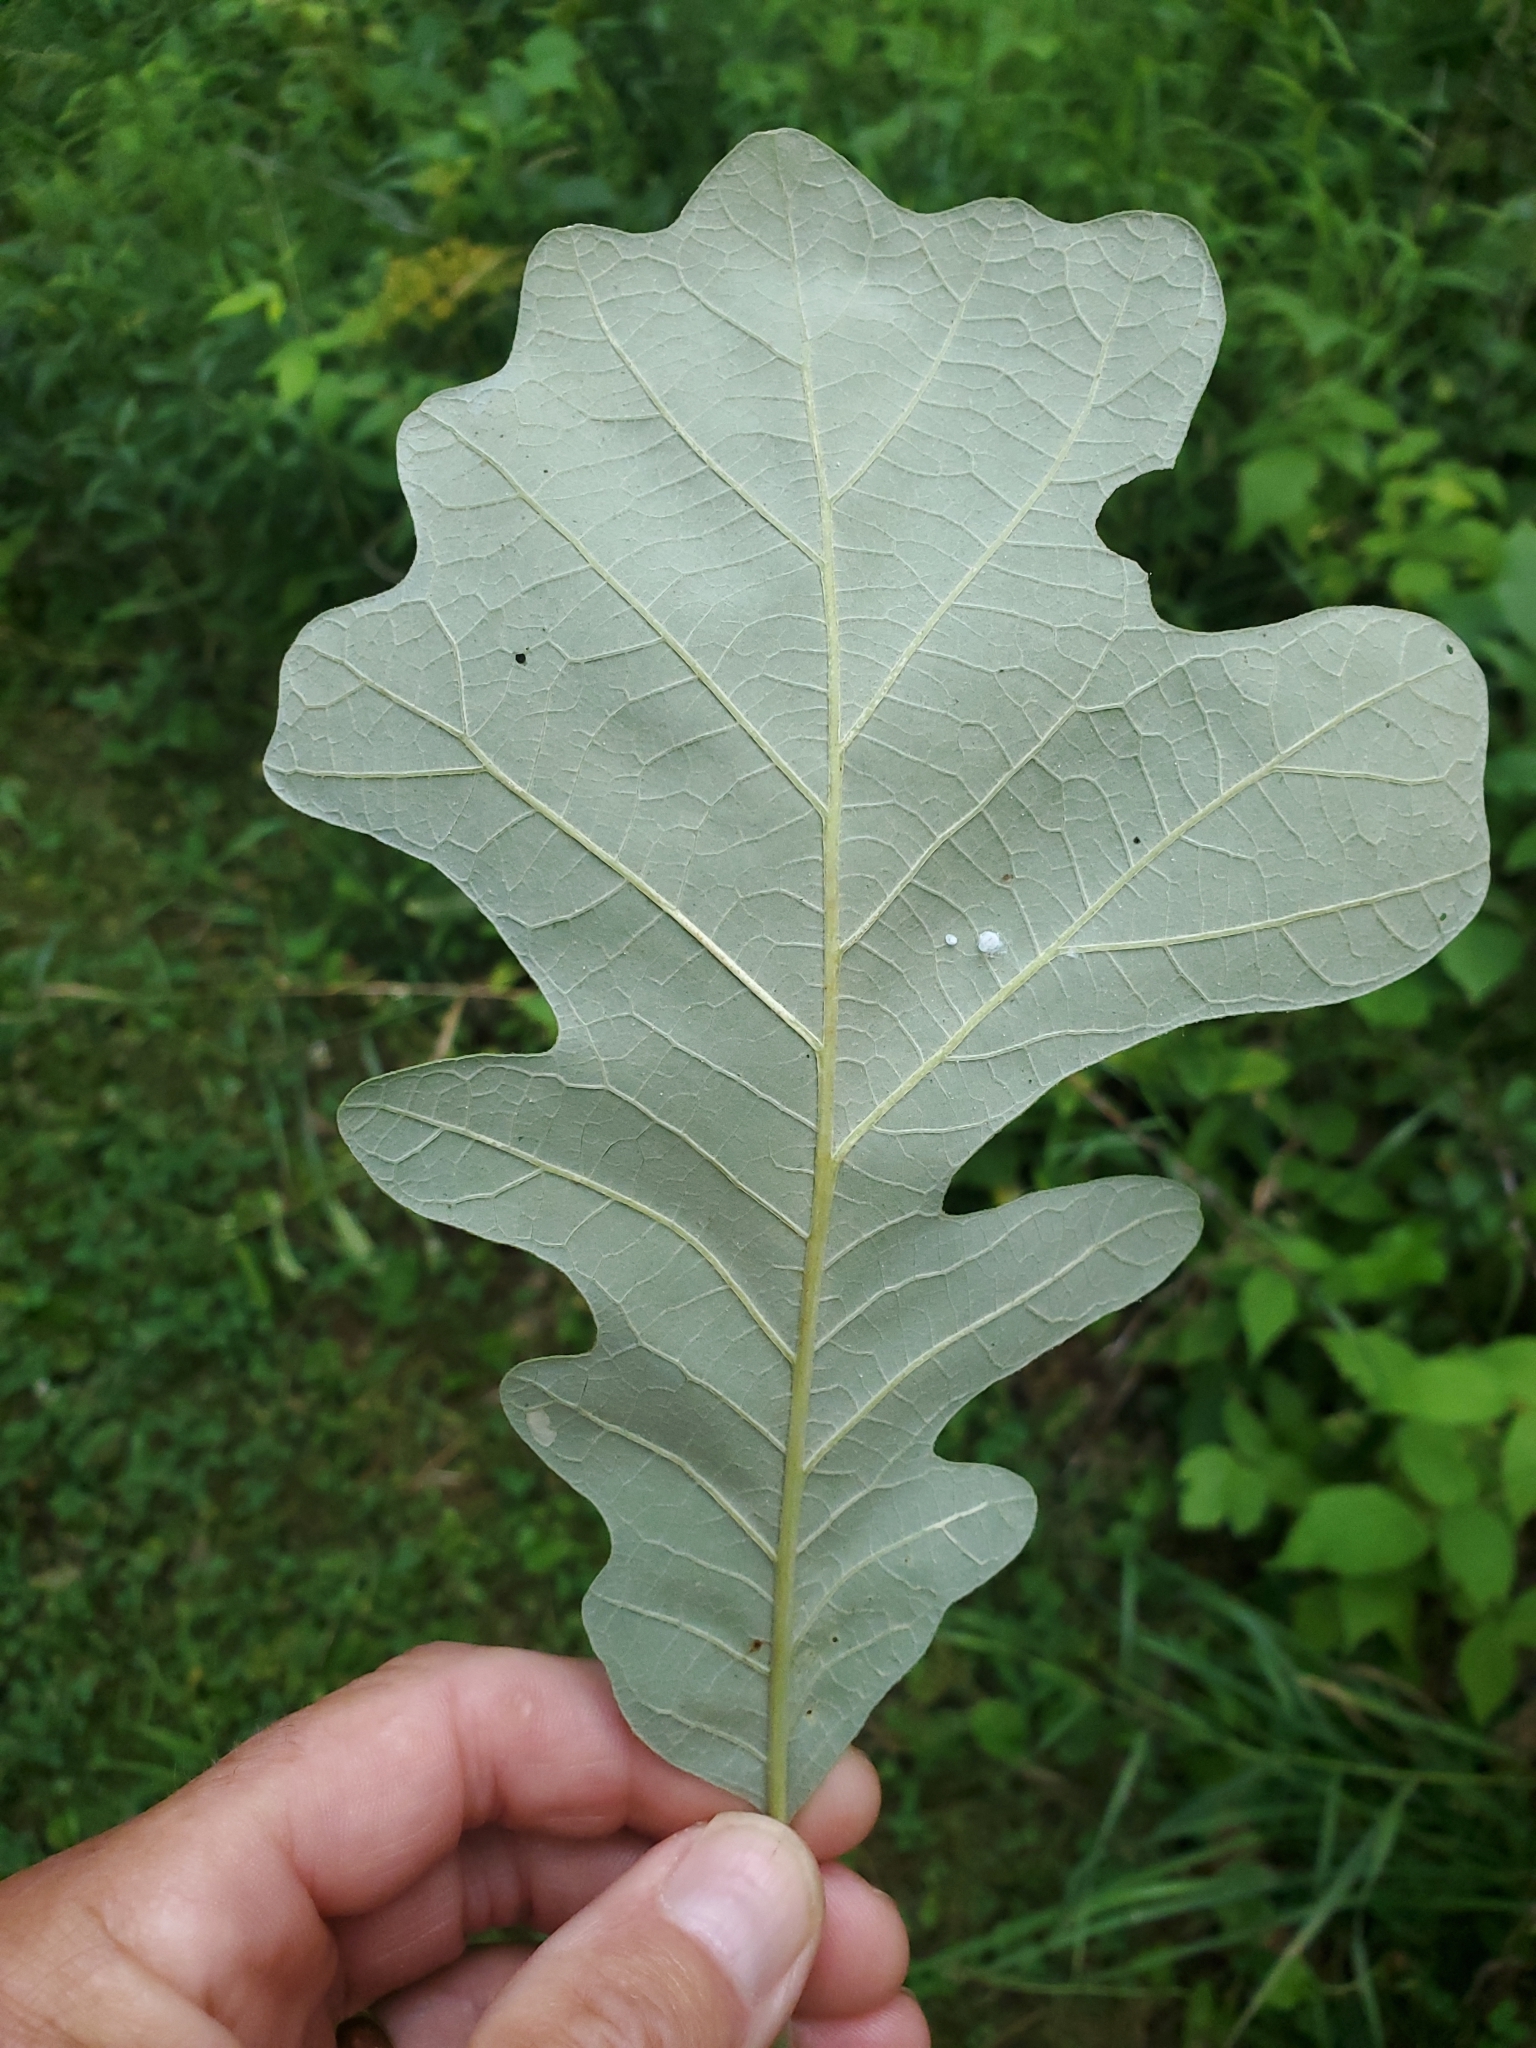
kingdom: Plantae
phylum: Tracheophyta
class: Magnoliopsida
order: Fagales
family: Fagaceae
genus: Quercus
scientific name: Quercus macrocarpa
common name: Bur oak
